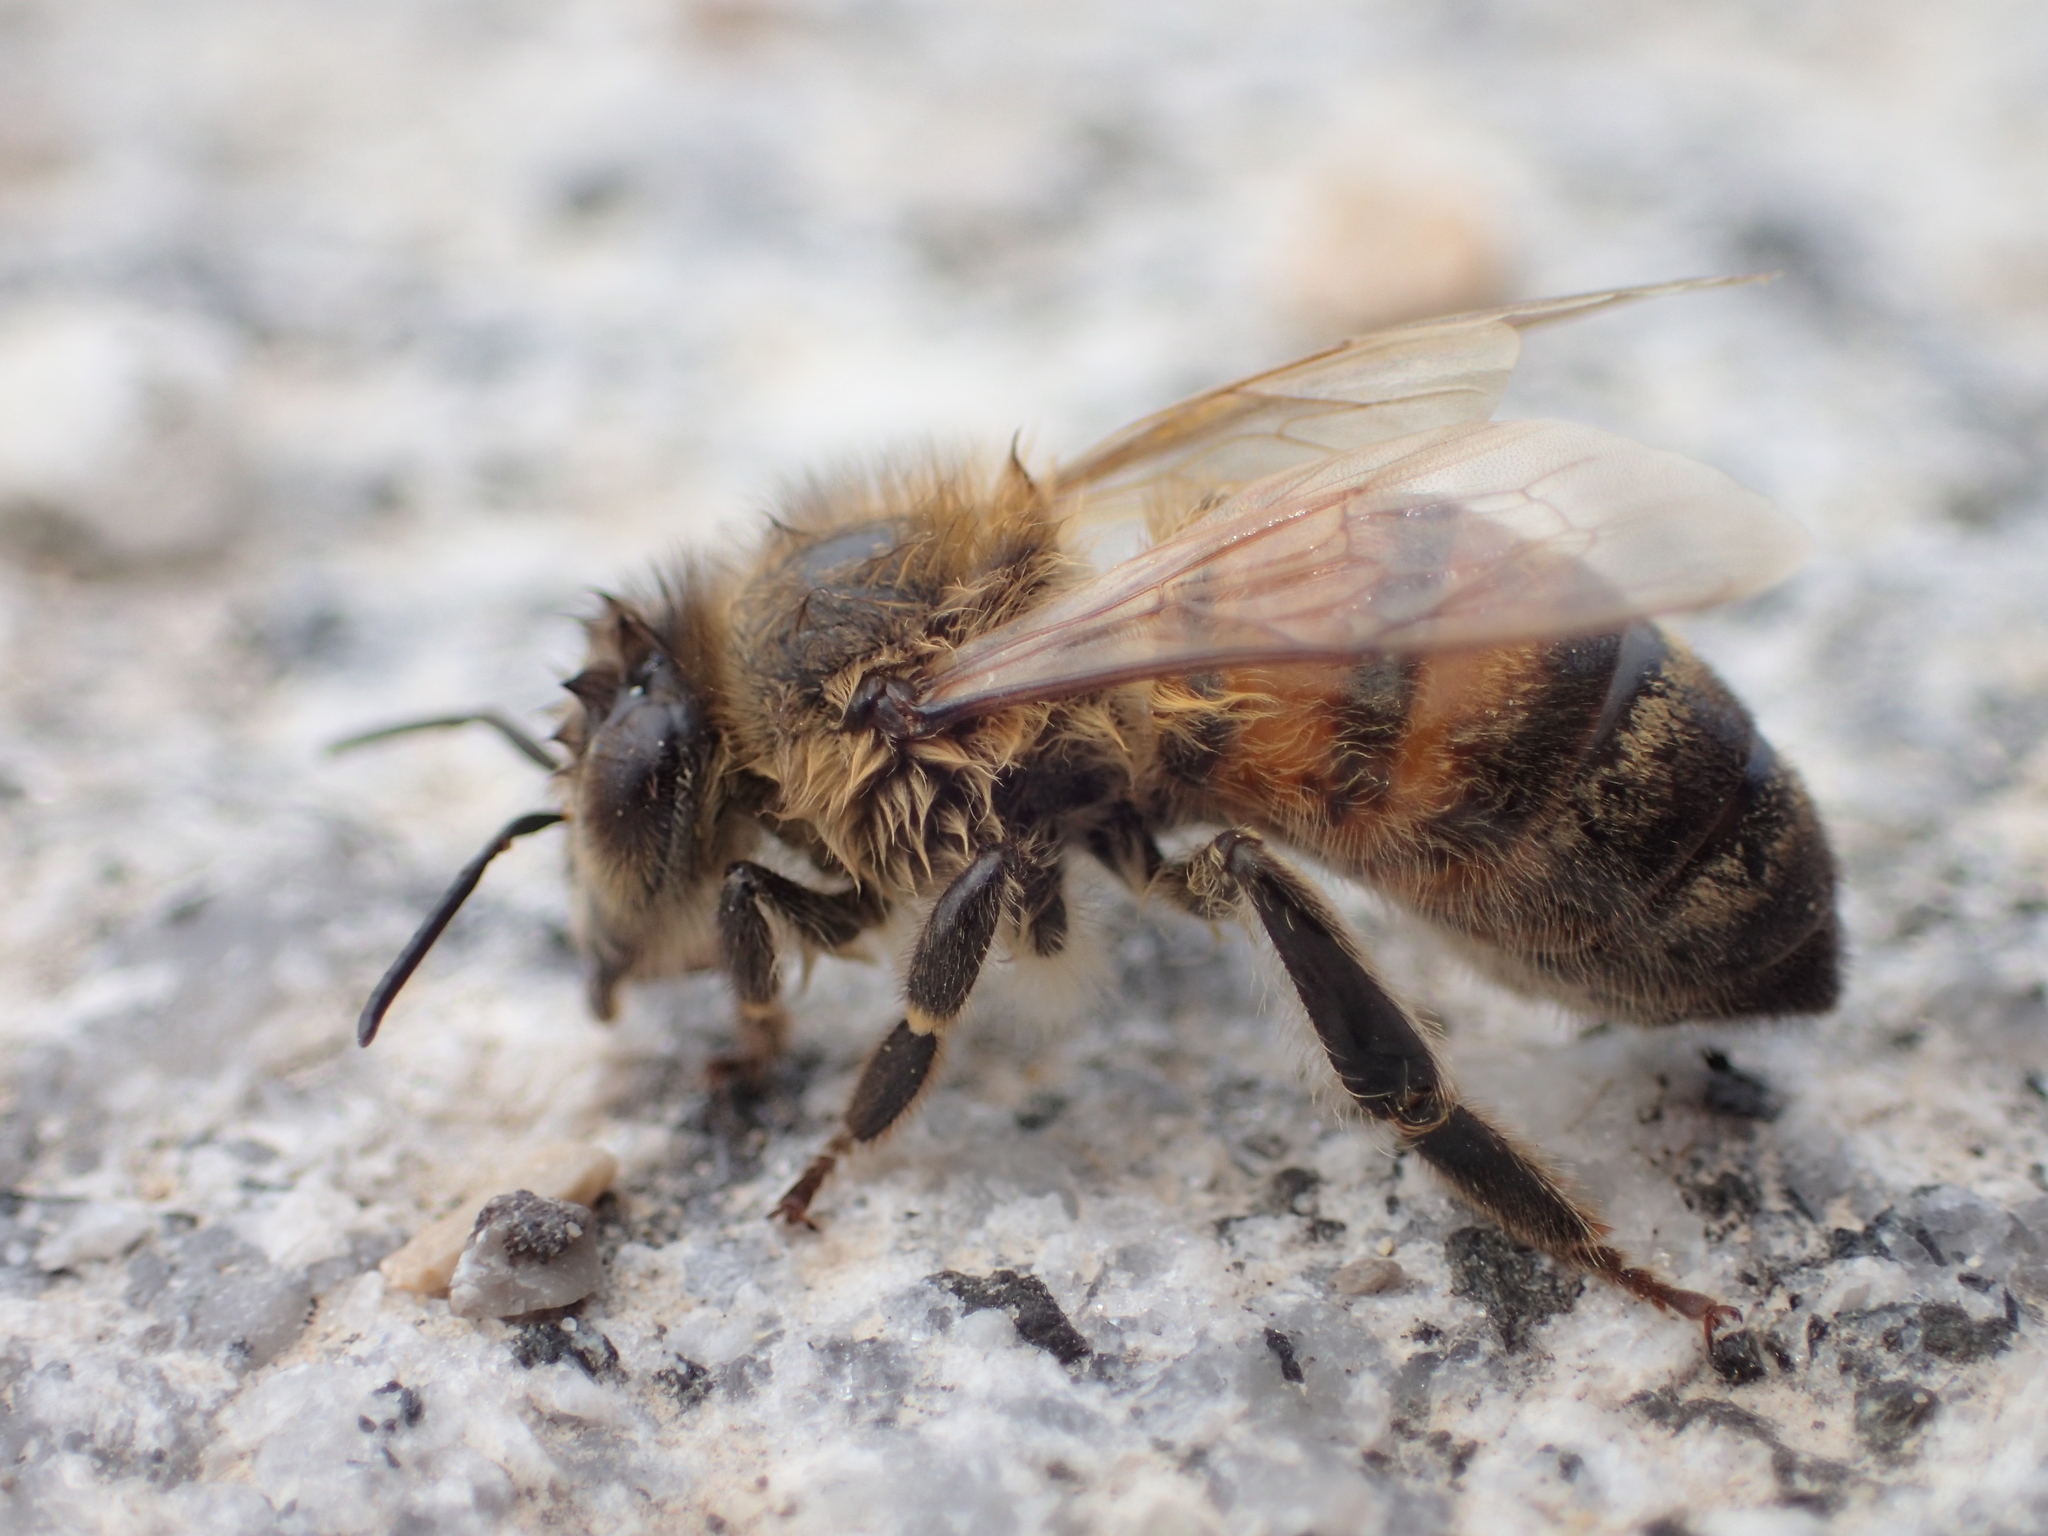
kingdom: Animalia
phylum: Arthropoda
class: Insecta
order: Hymenoptera
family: Apidae
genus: Apis
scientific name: Apis mellifera
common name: Honey bee
